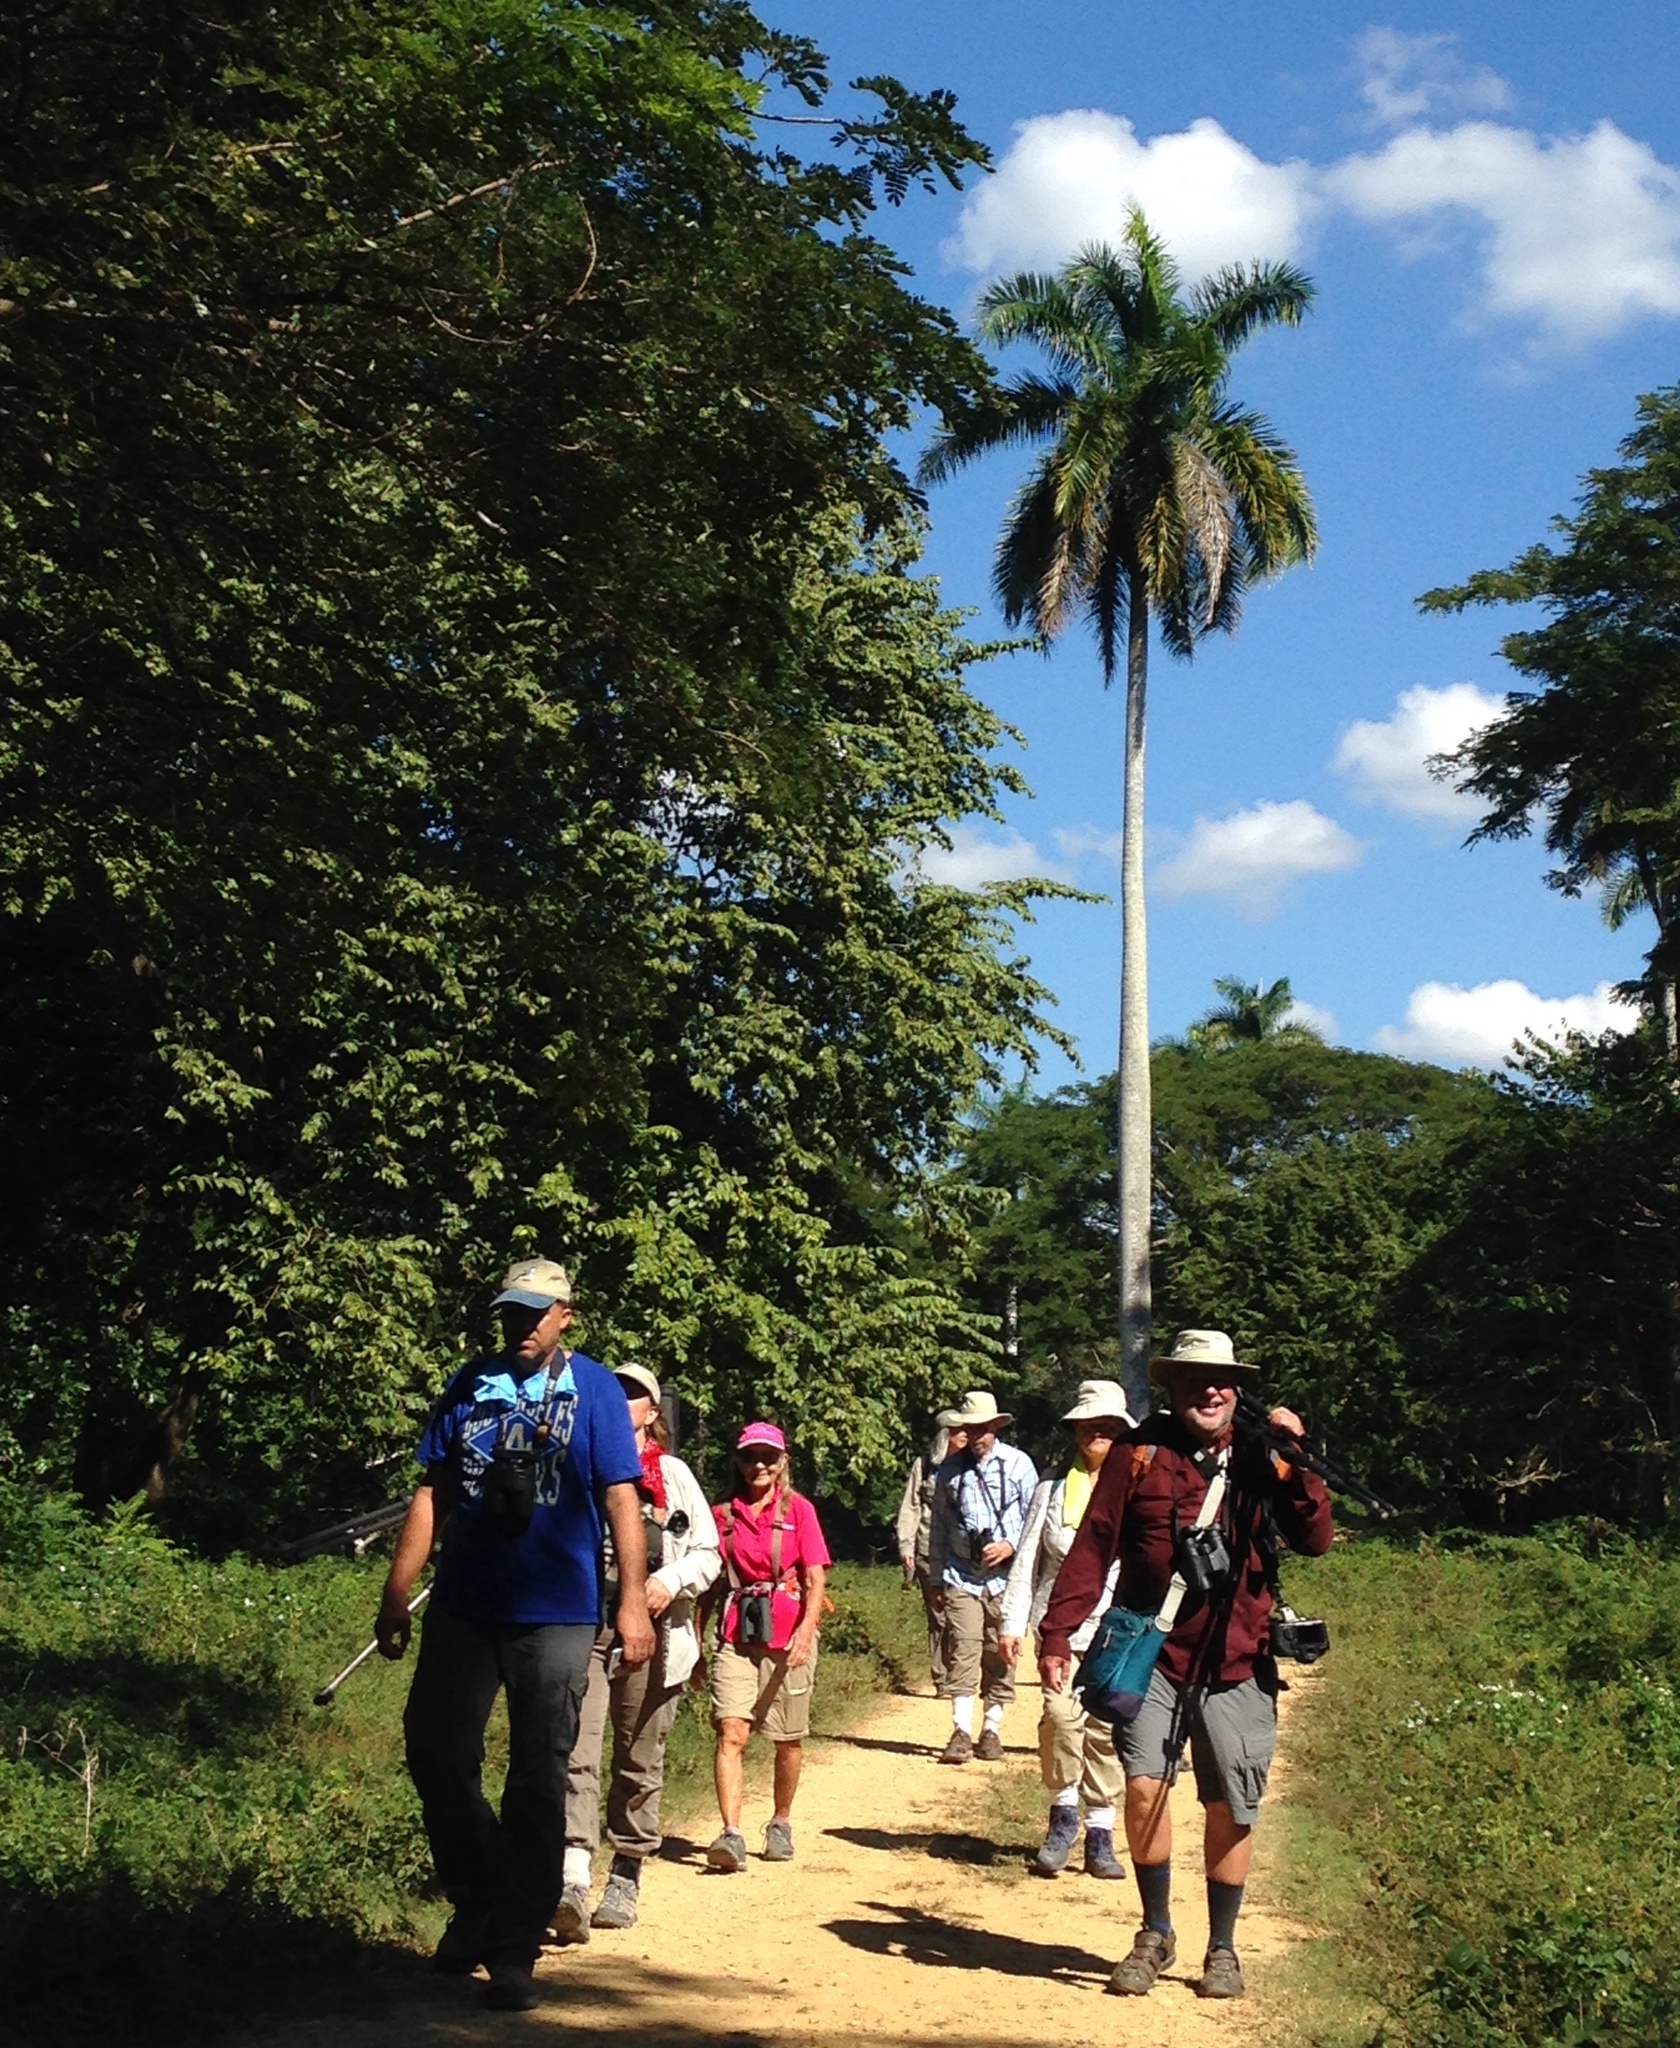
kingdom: Plantae
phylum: Tracheophyta
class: Liliopsida
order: Arecales
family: Arecaceae
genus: Roystonea
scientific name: Roystonea regia
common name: Florida royal palm
